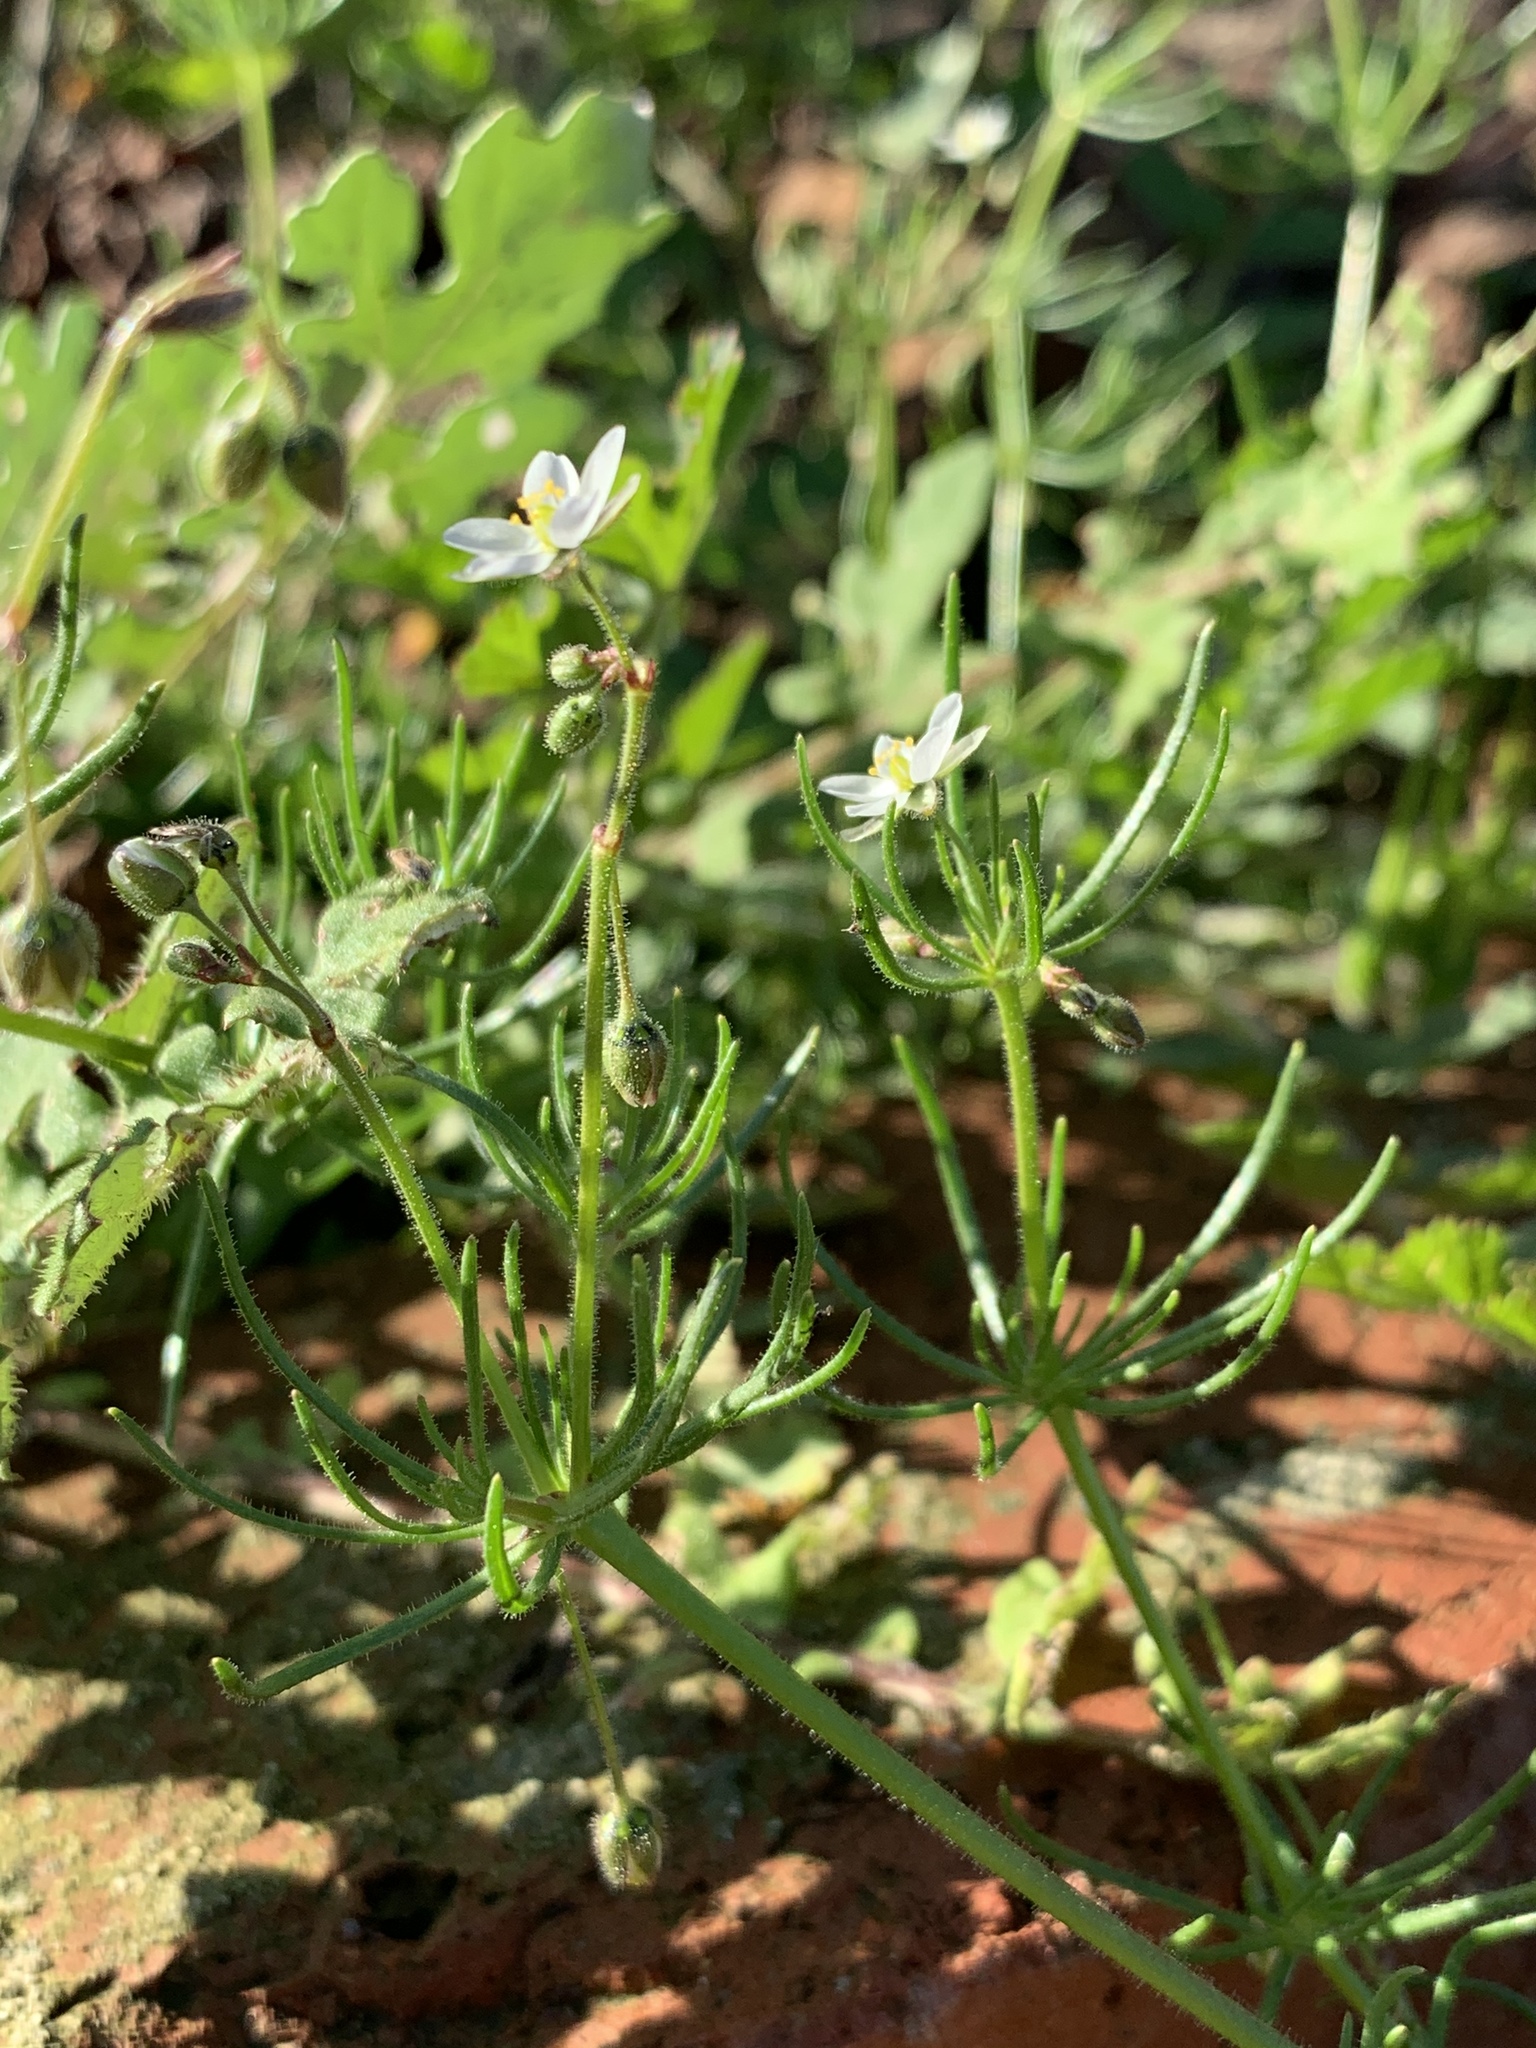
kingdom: Plantae
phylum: Tracheophyta
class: Magnoliopsida
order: Caryophyllales
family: Caryophyllaceae
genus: Spergula
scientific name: Spergula arvensis
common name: Corn spurrey
